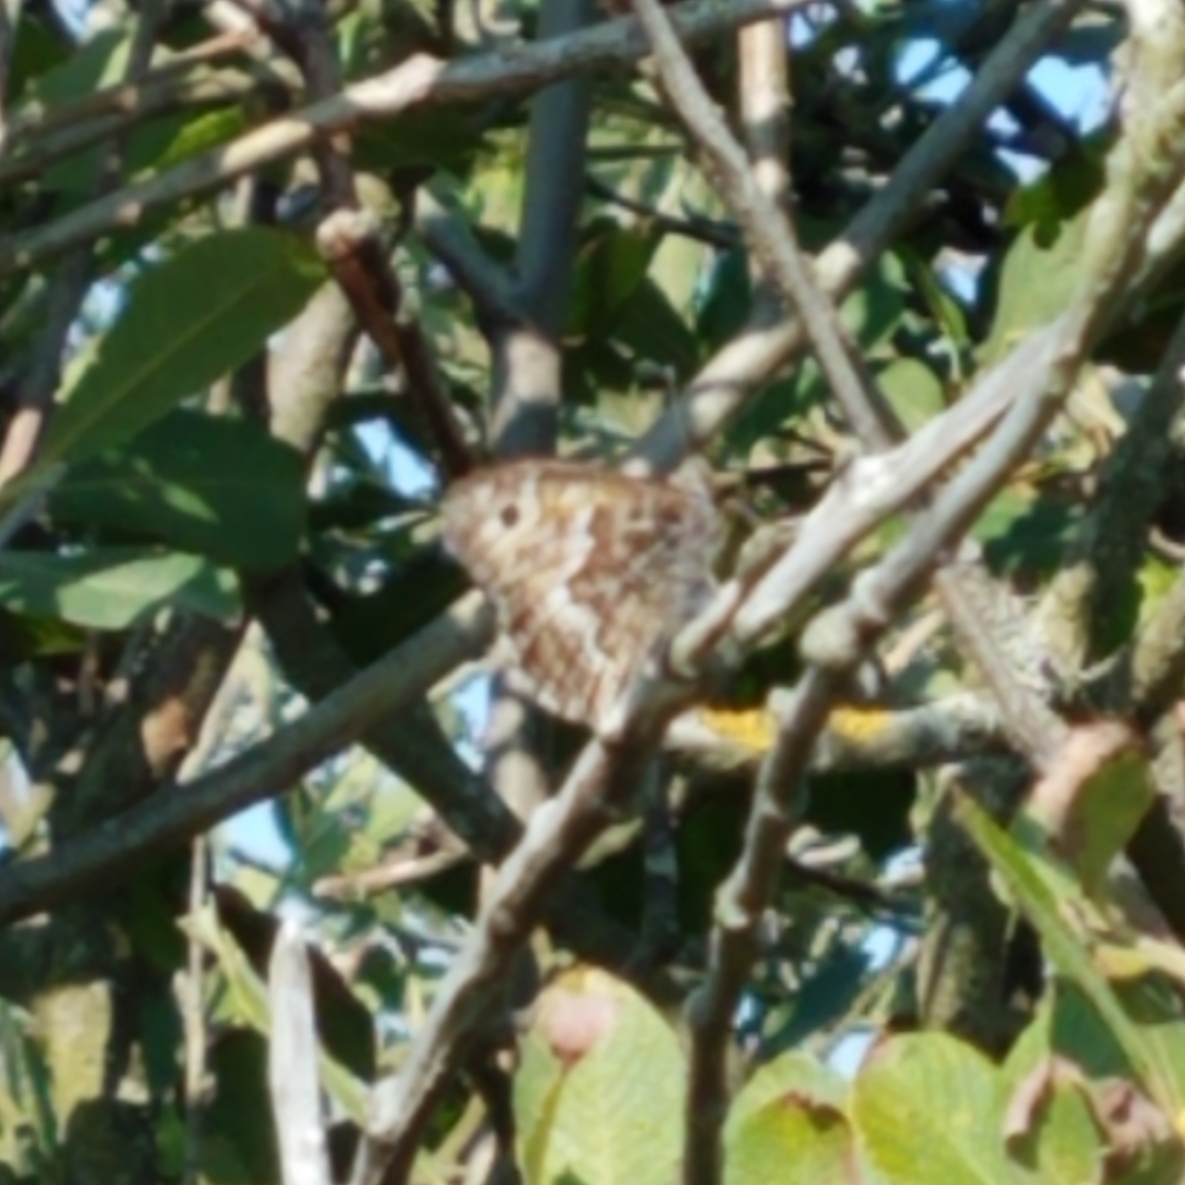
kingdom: Animalia
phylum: Arthropoda
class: Insecta
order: Lepidoptera
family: Nymphalidae
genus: Hipparchia
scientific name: Hipparchia semele
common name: Grayling
